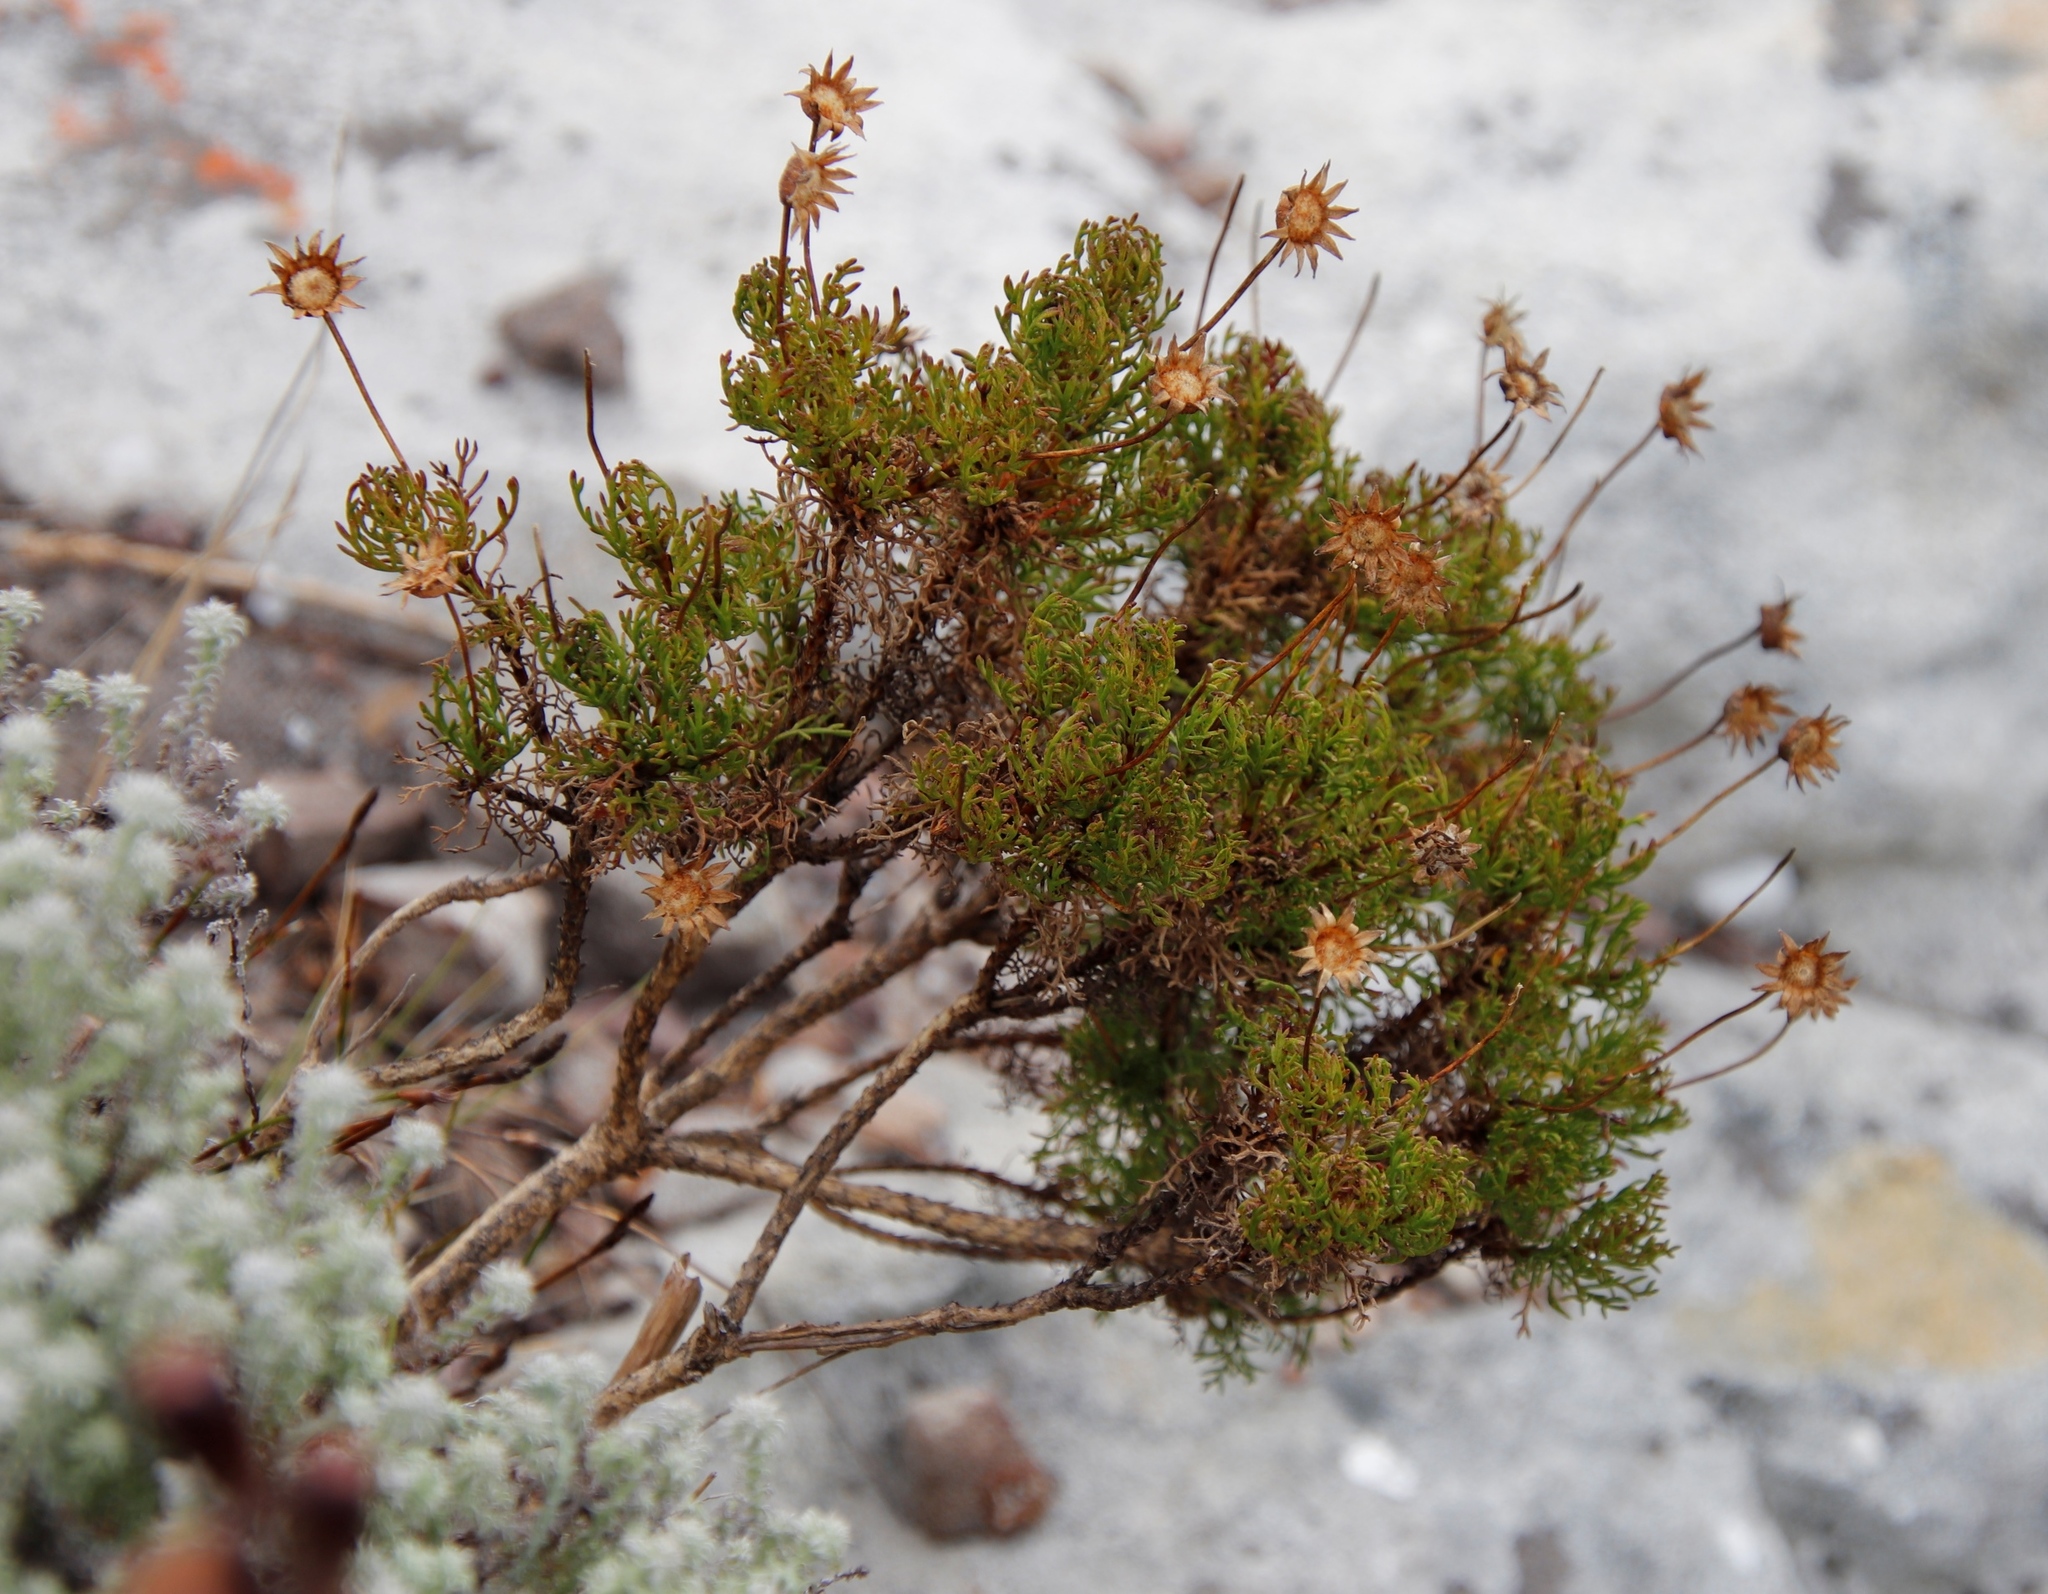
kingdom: Plantae
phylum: Tracheophyta
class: Magnoliopsida
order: Asterales
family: Asteraceae
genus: Euryops
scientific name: Euryops abrotanifolius
